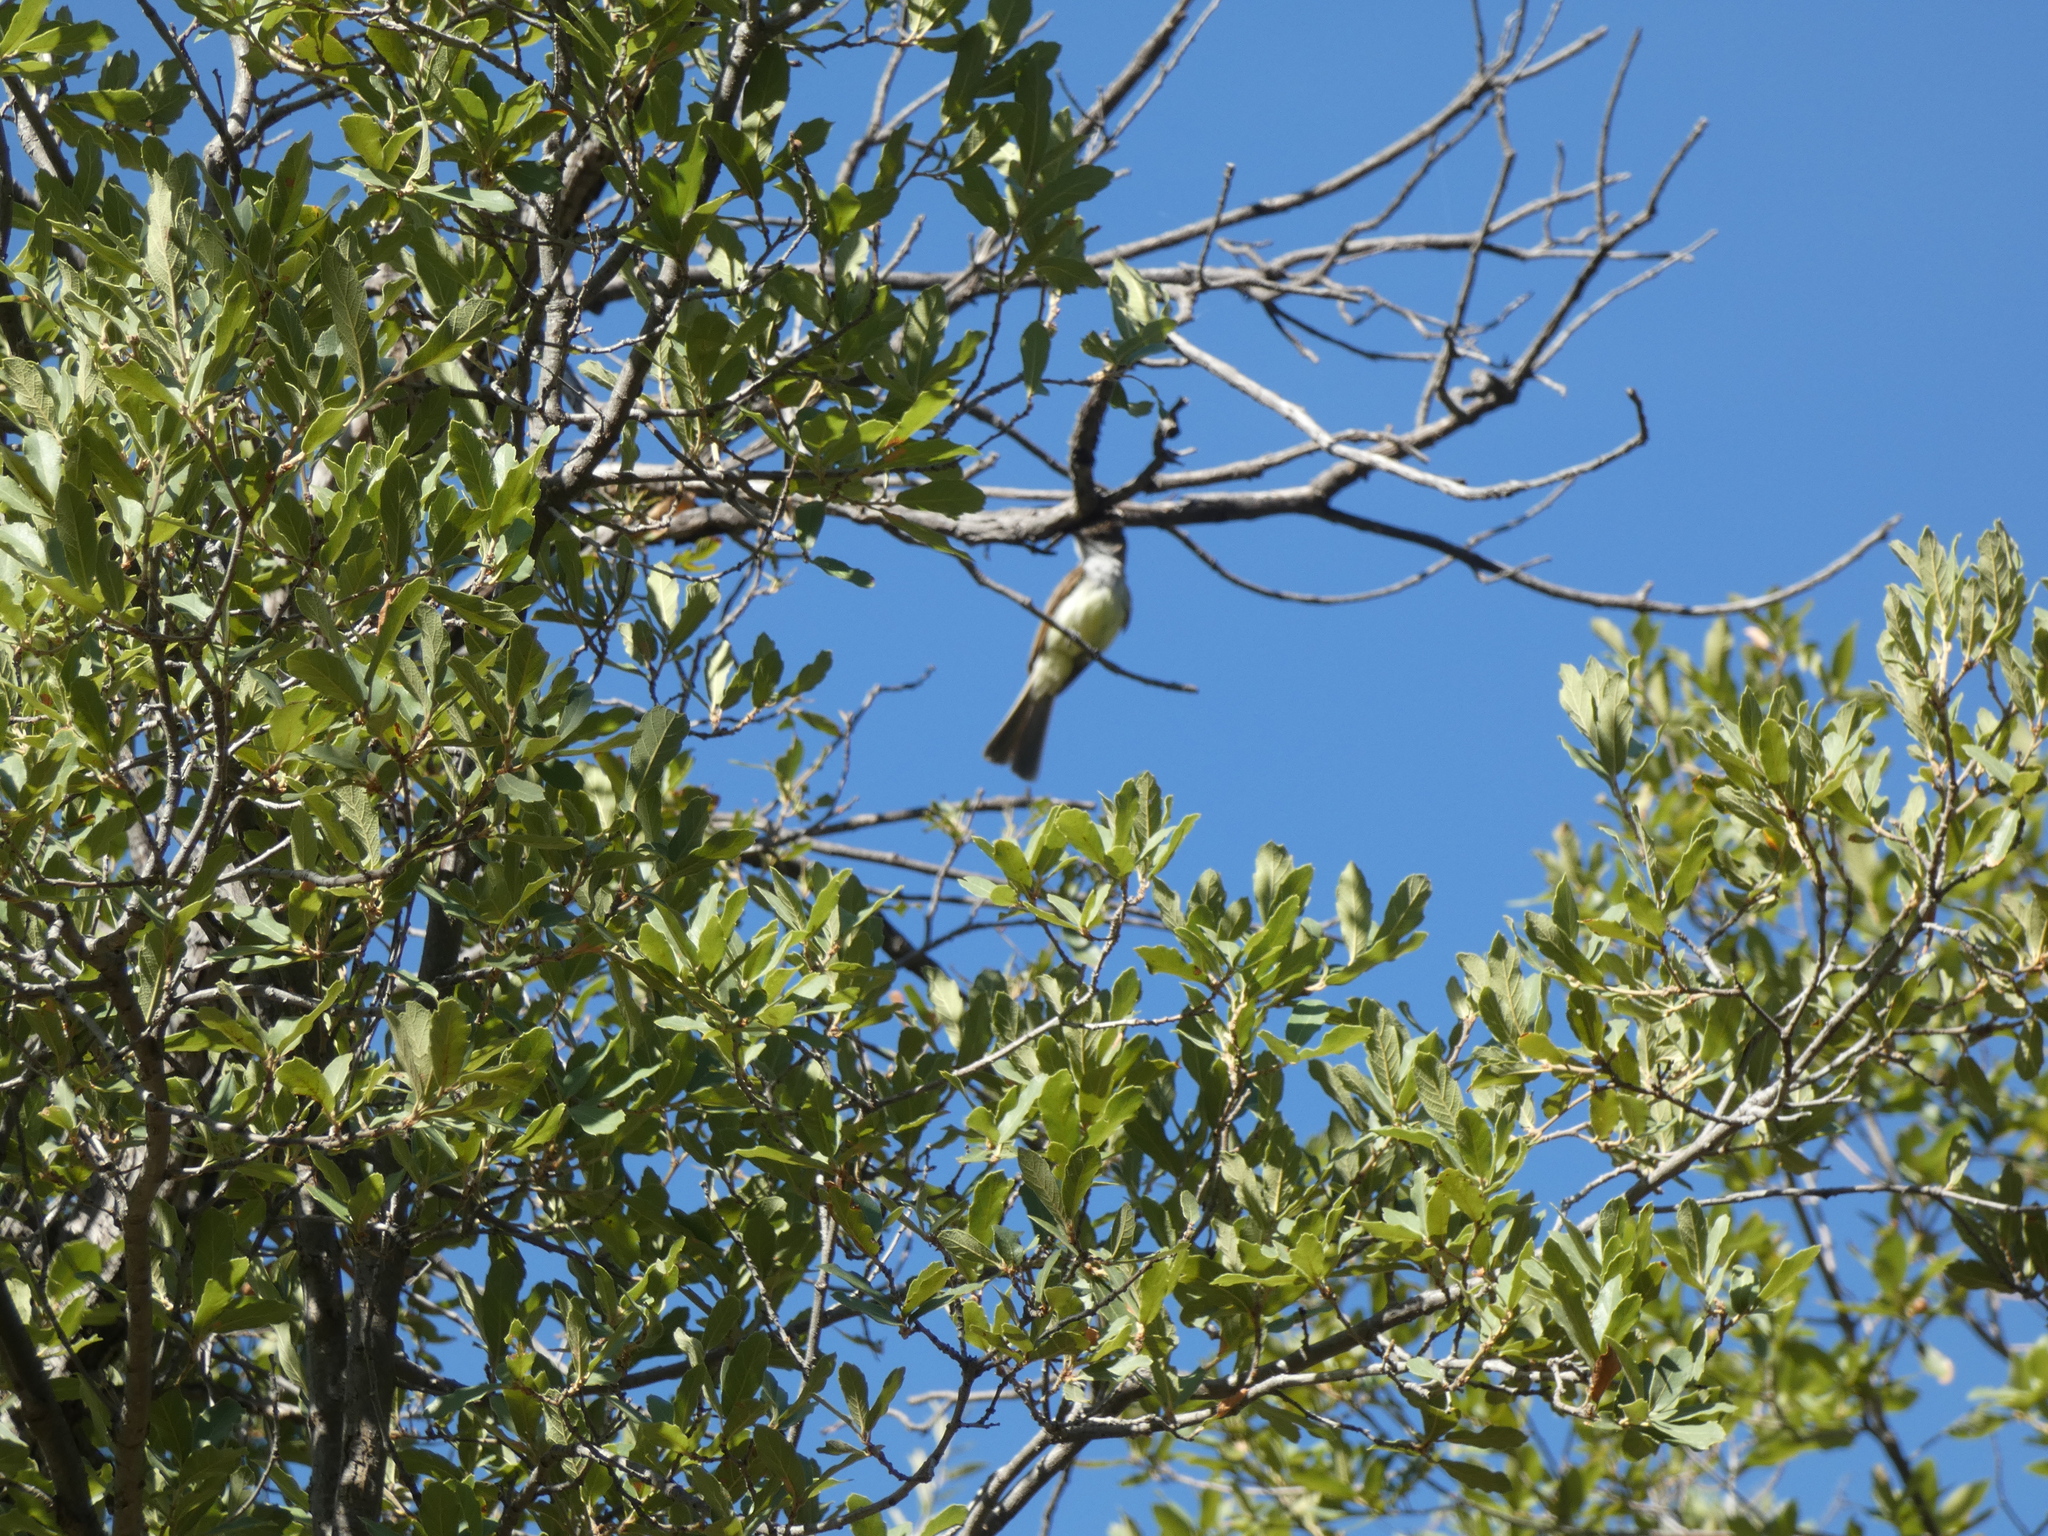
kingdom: Animalia
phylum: Chordata
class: Aves
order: Passeriformes
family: Tyrannidae
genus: Myiarchus
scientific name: Myiarchus tuberculifer
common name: Dusky-capped flycatcher
